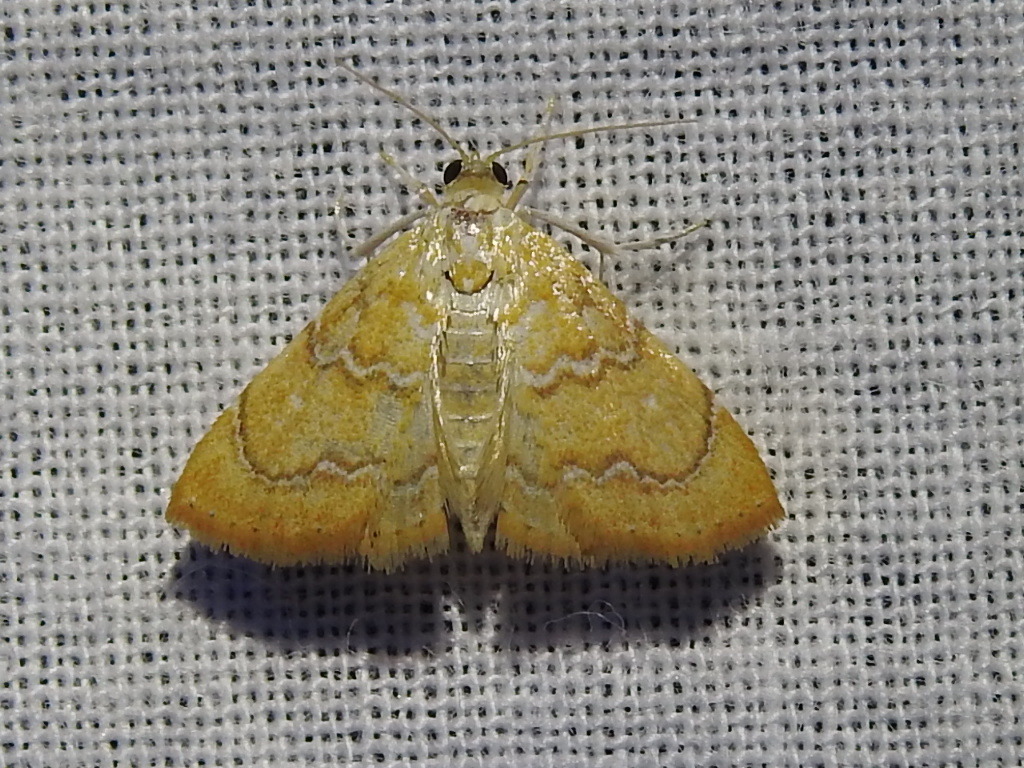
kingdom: Animalia
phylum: Arthropoda
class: Insecta
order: Lepidoptera
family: Crambidae
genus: Glaphyria
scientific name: Glaphyria sesquistrialis
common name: White-roped glaphyria
